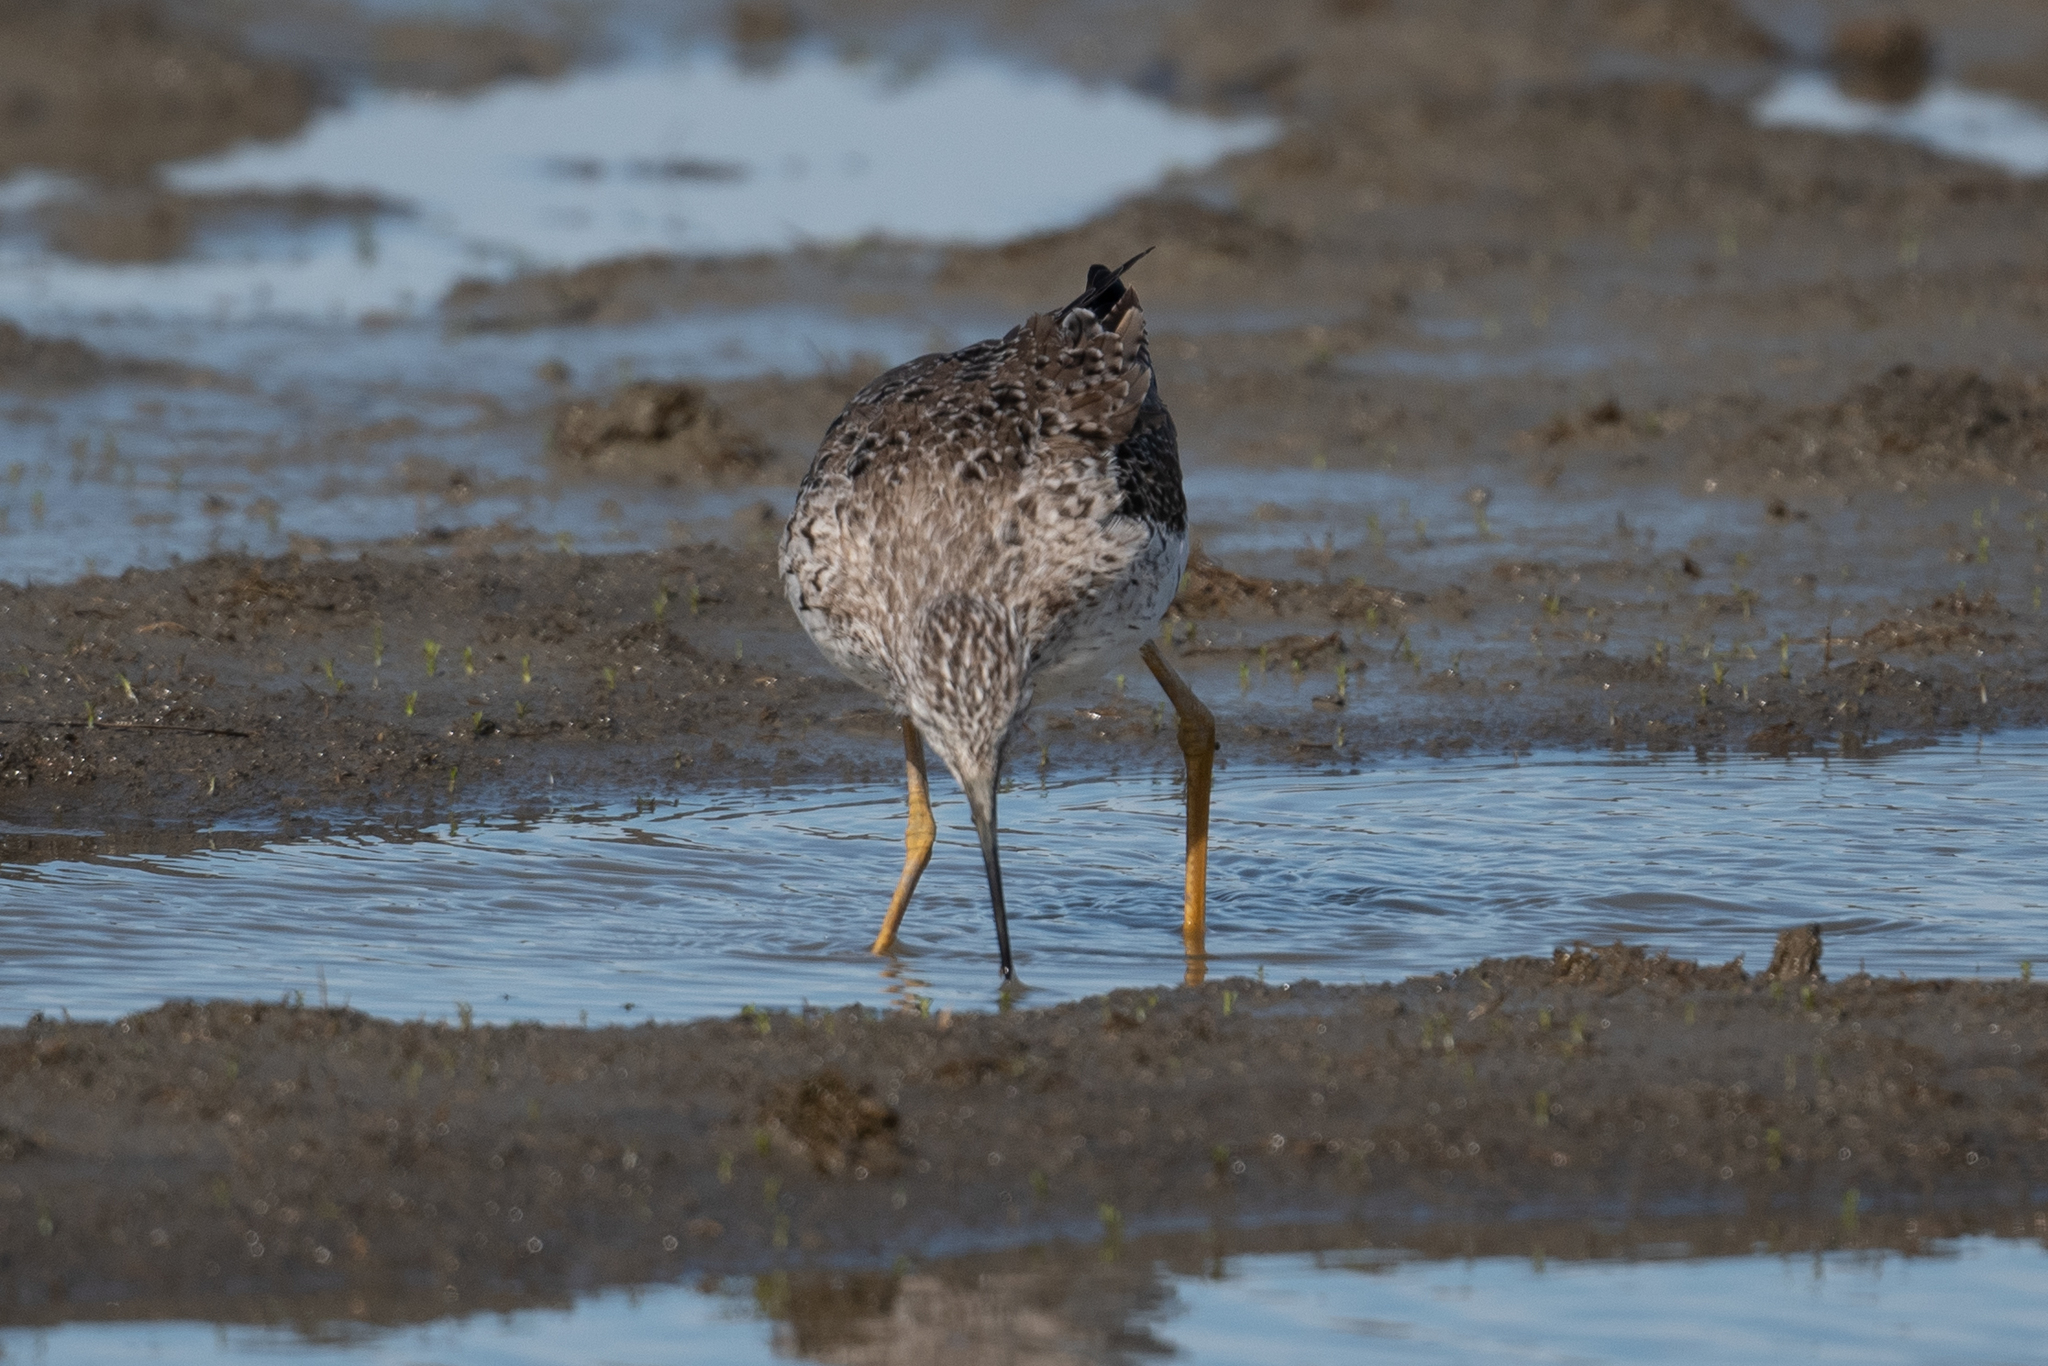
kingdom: Animalia
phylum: Chordata
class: Aves
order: Charadriiformes
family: Scolopacidae
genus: Tringa
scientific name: Tringa melanoleuca
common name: Greater yellowlegs
